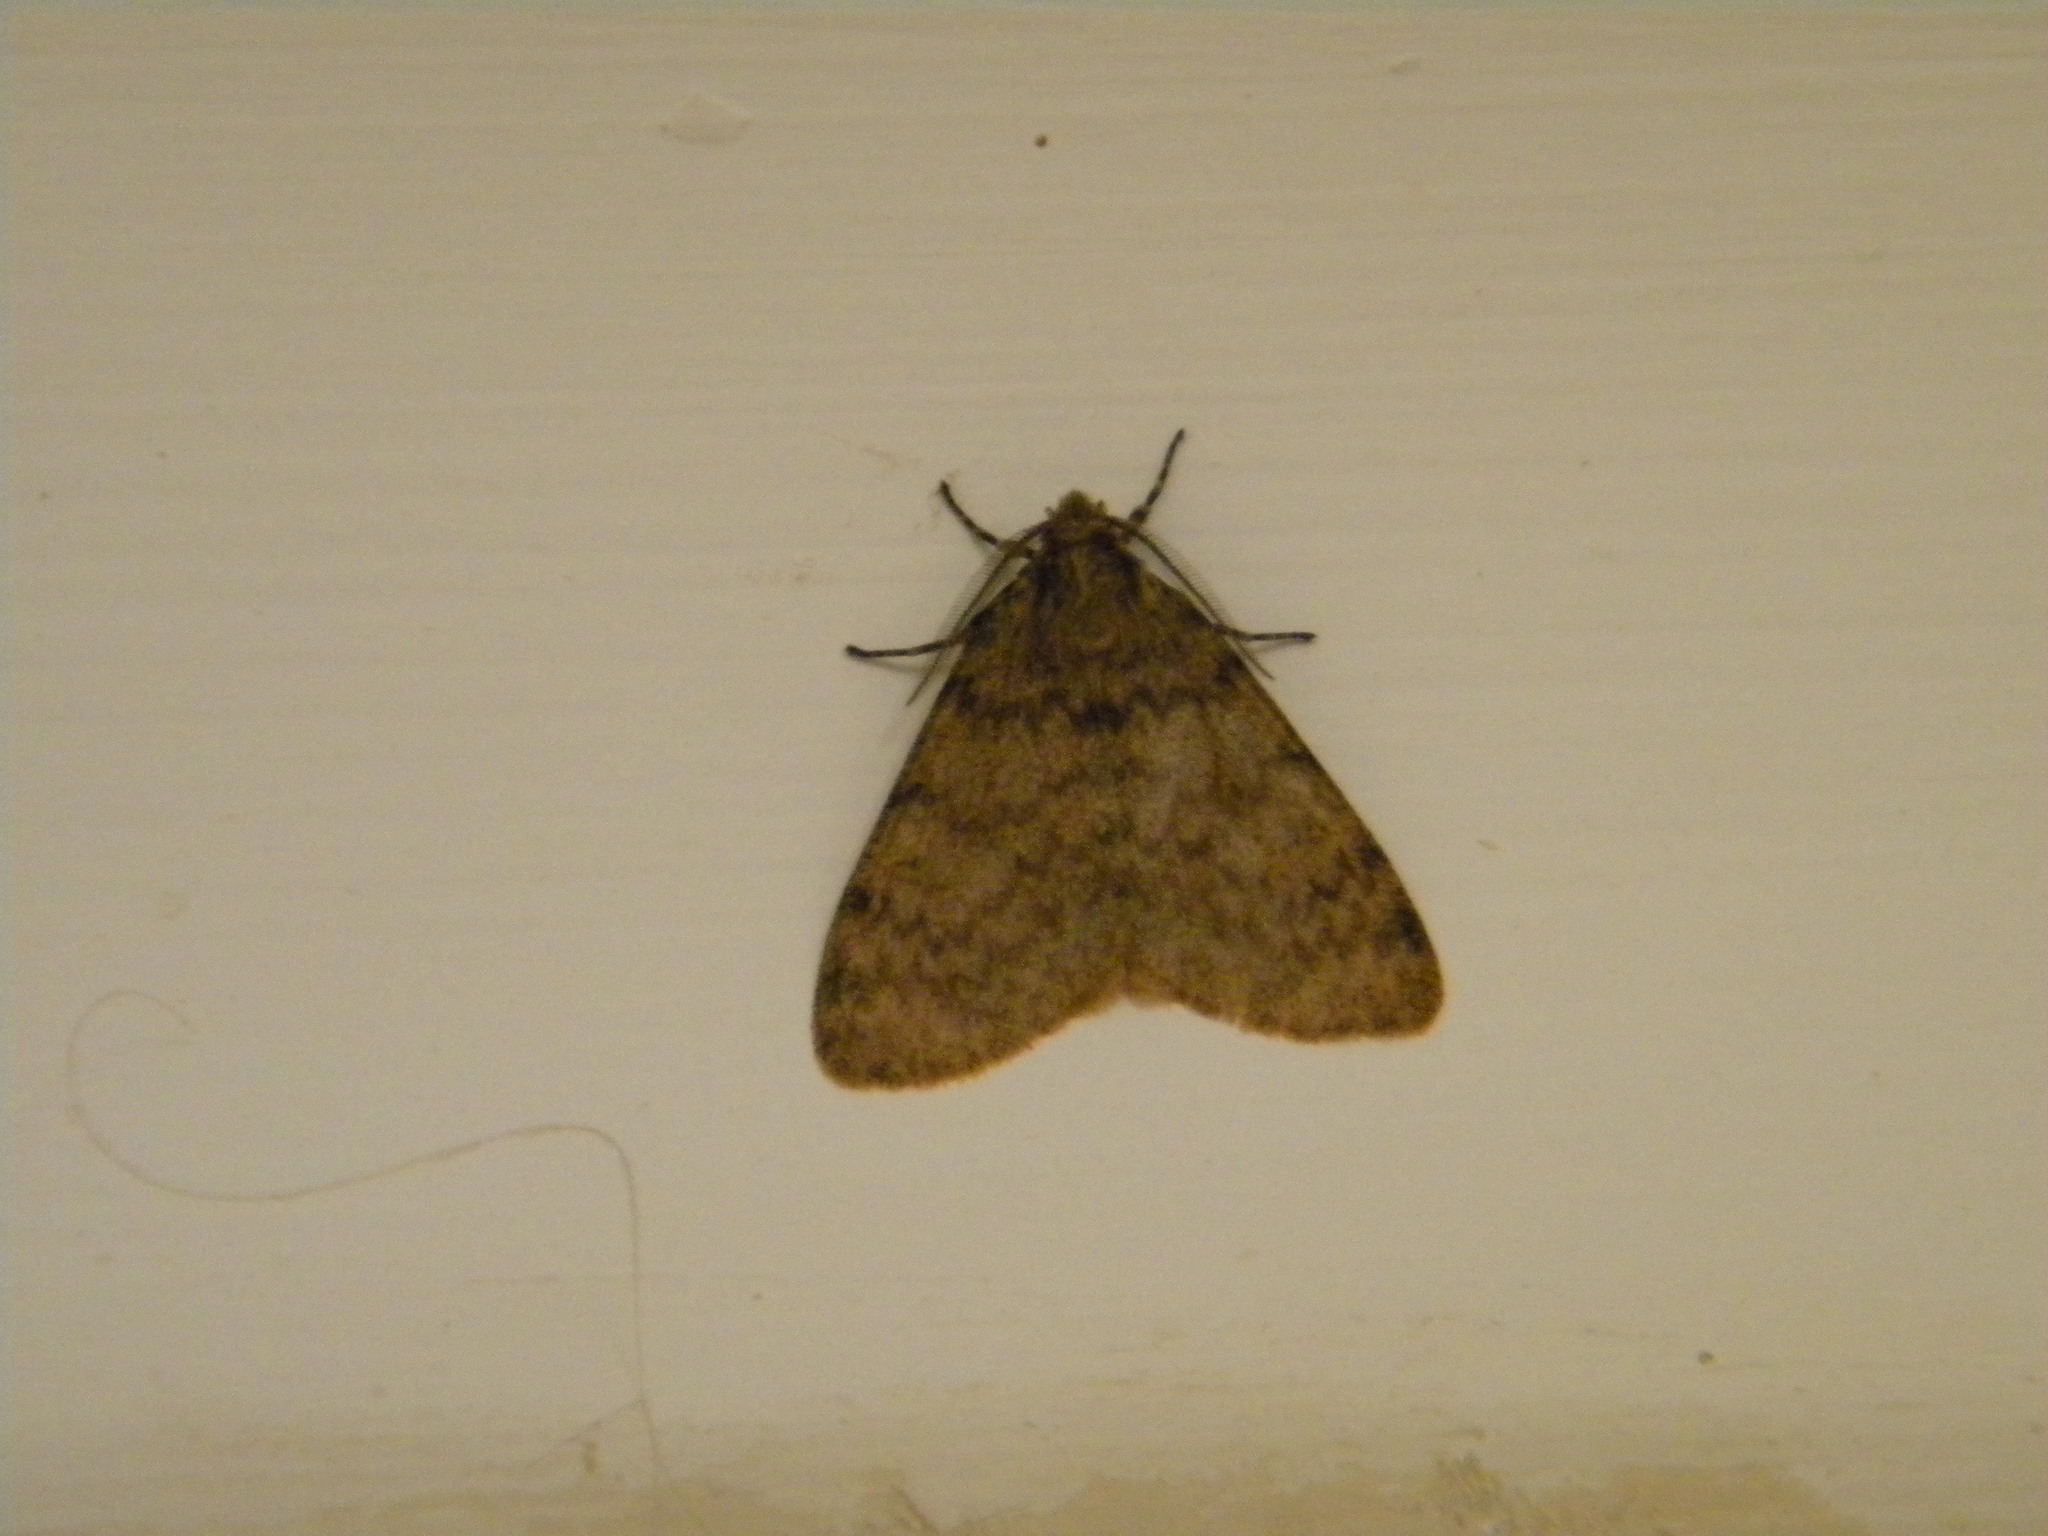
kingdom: Animalia
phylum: Arthropoda
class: Insecta
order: Lepidoptera
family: Erebidae
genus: Cymaroa
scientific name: Cymaroa grisea
